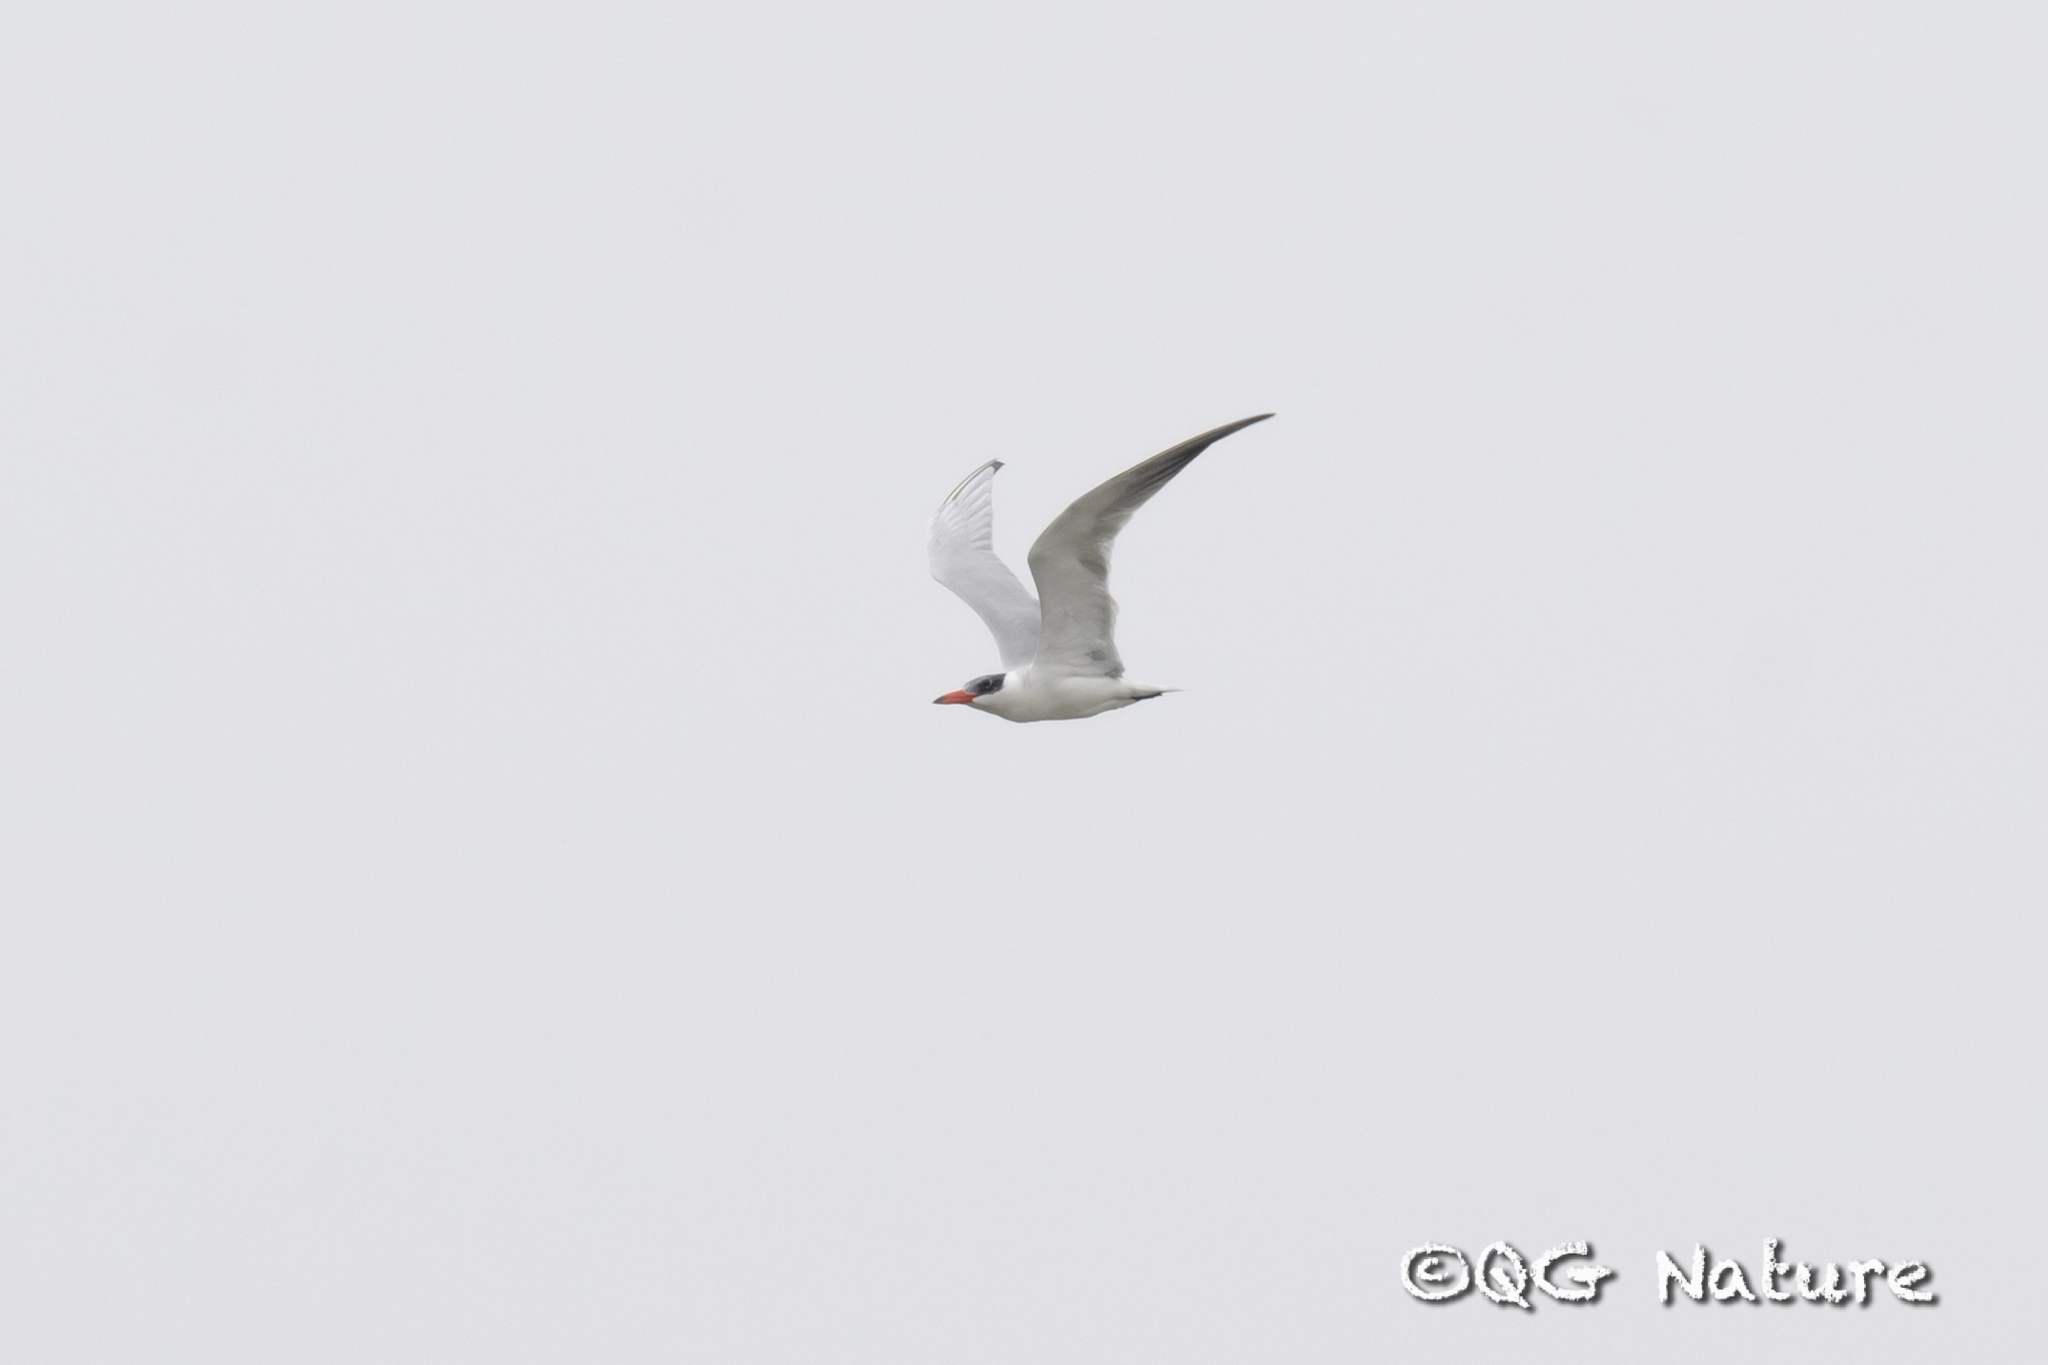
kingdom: Animalia
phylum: Chordata
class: Aves
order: Charadriiformes
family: Laridae
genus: Hydroprogne
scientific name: Hydroprogne caspia
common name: Caspian tern
